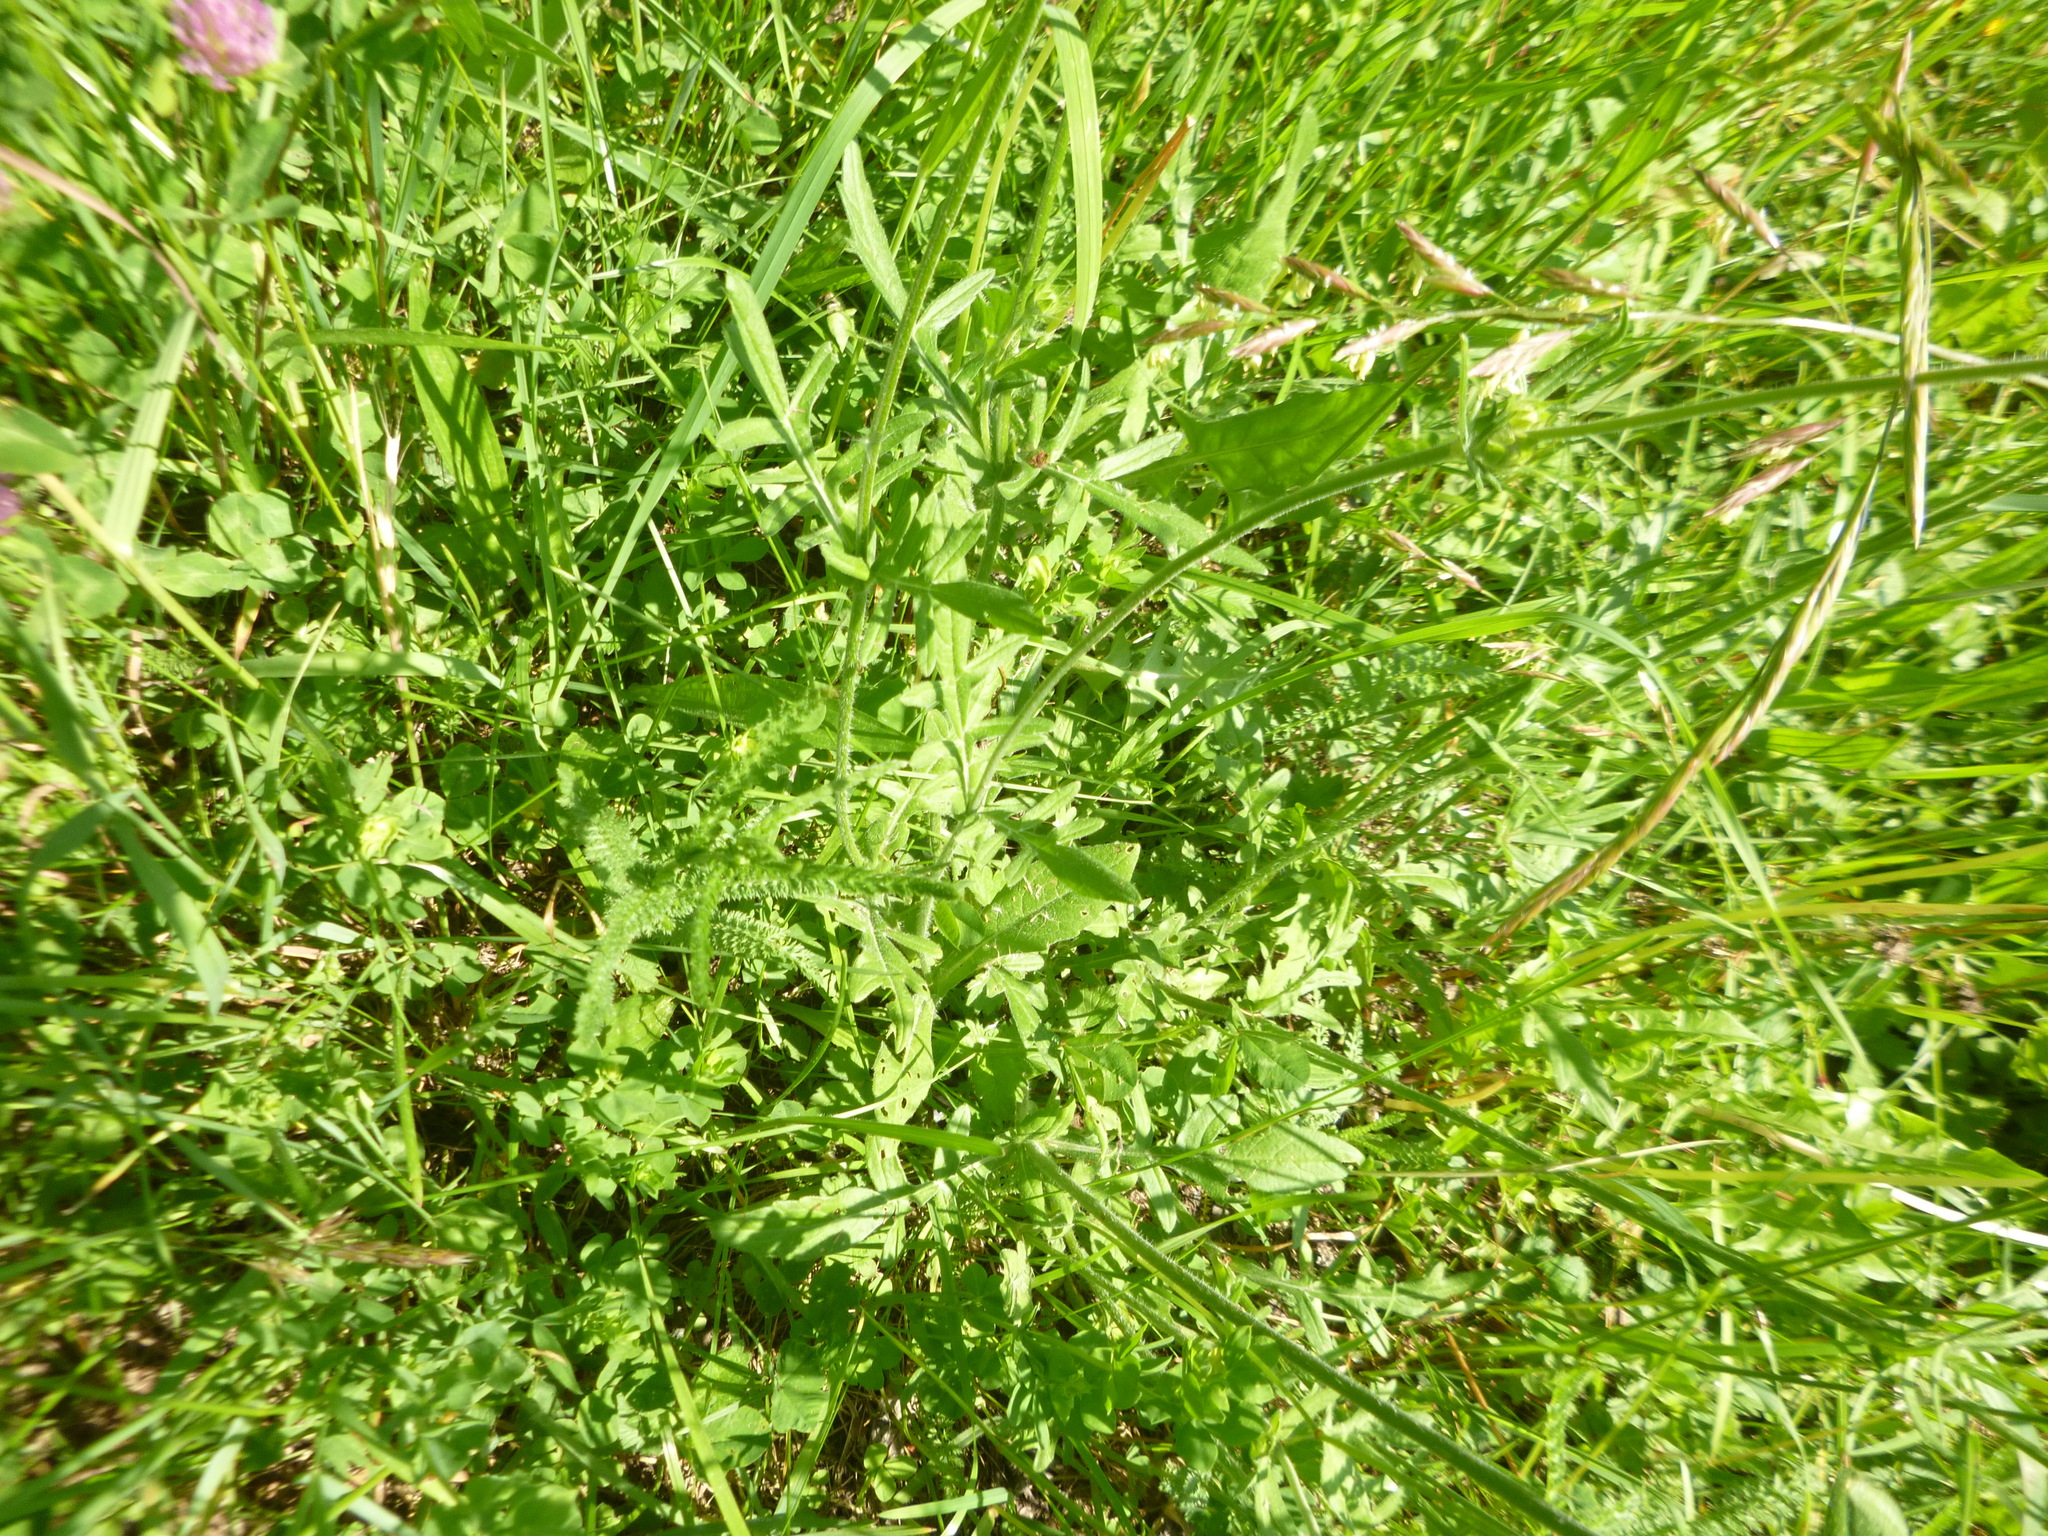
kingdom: Plantae
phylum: Tracheophyta
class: Magnoliopsida
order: Dipsacales
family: Caprifoliaceae
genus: Knautia
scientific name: Knautia arvensis
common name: Field scabiosa
